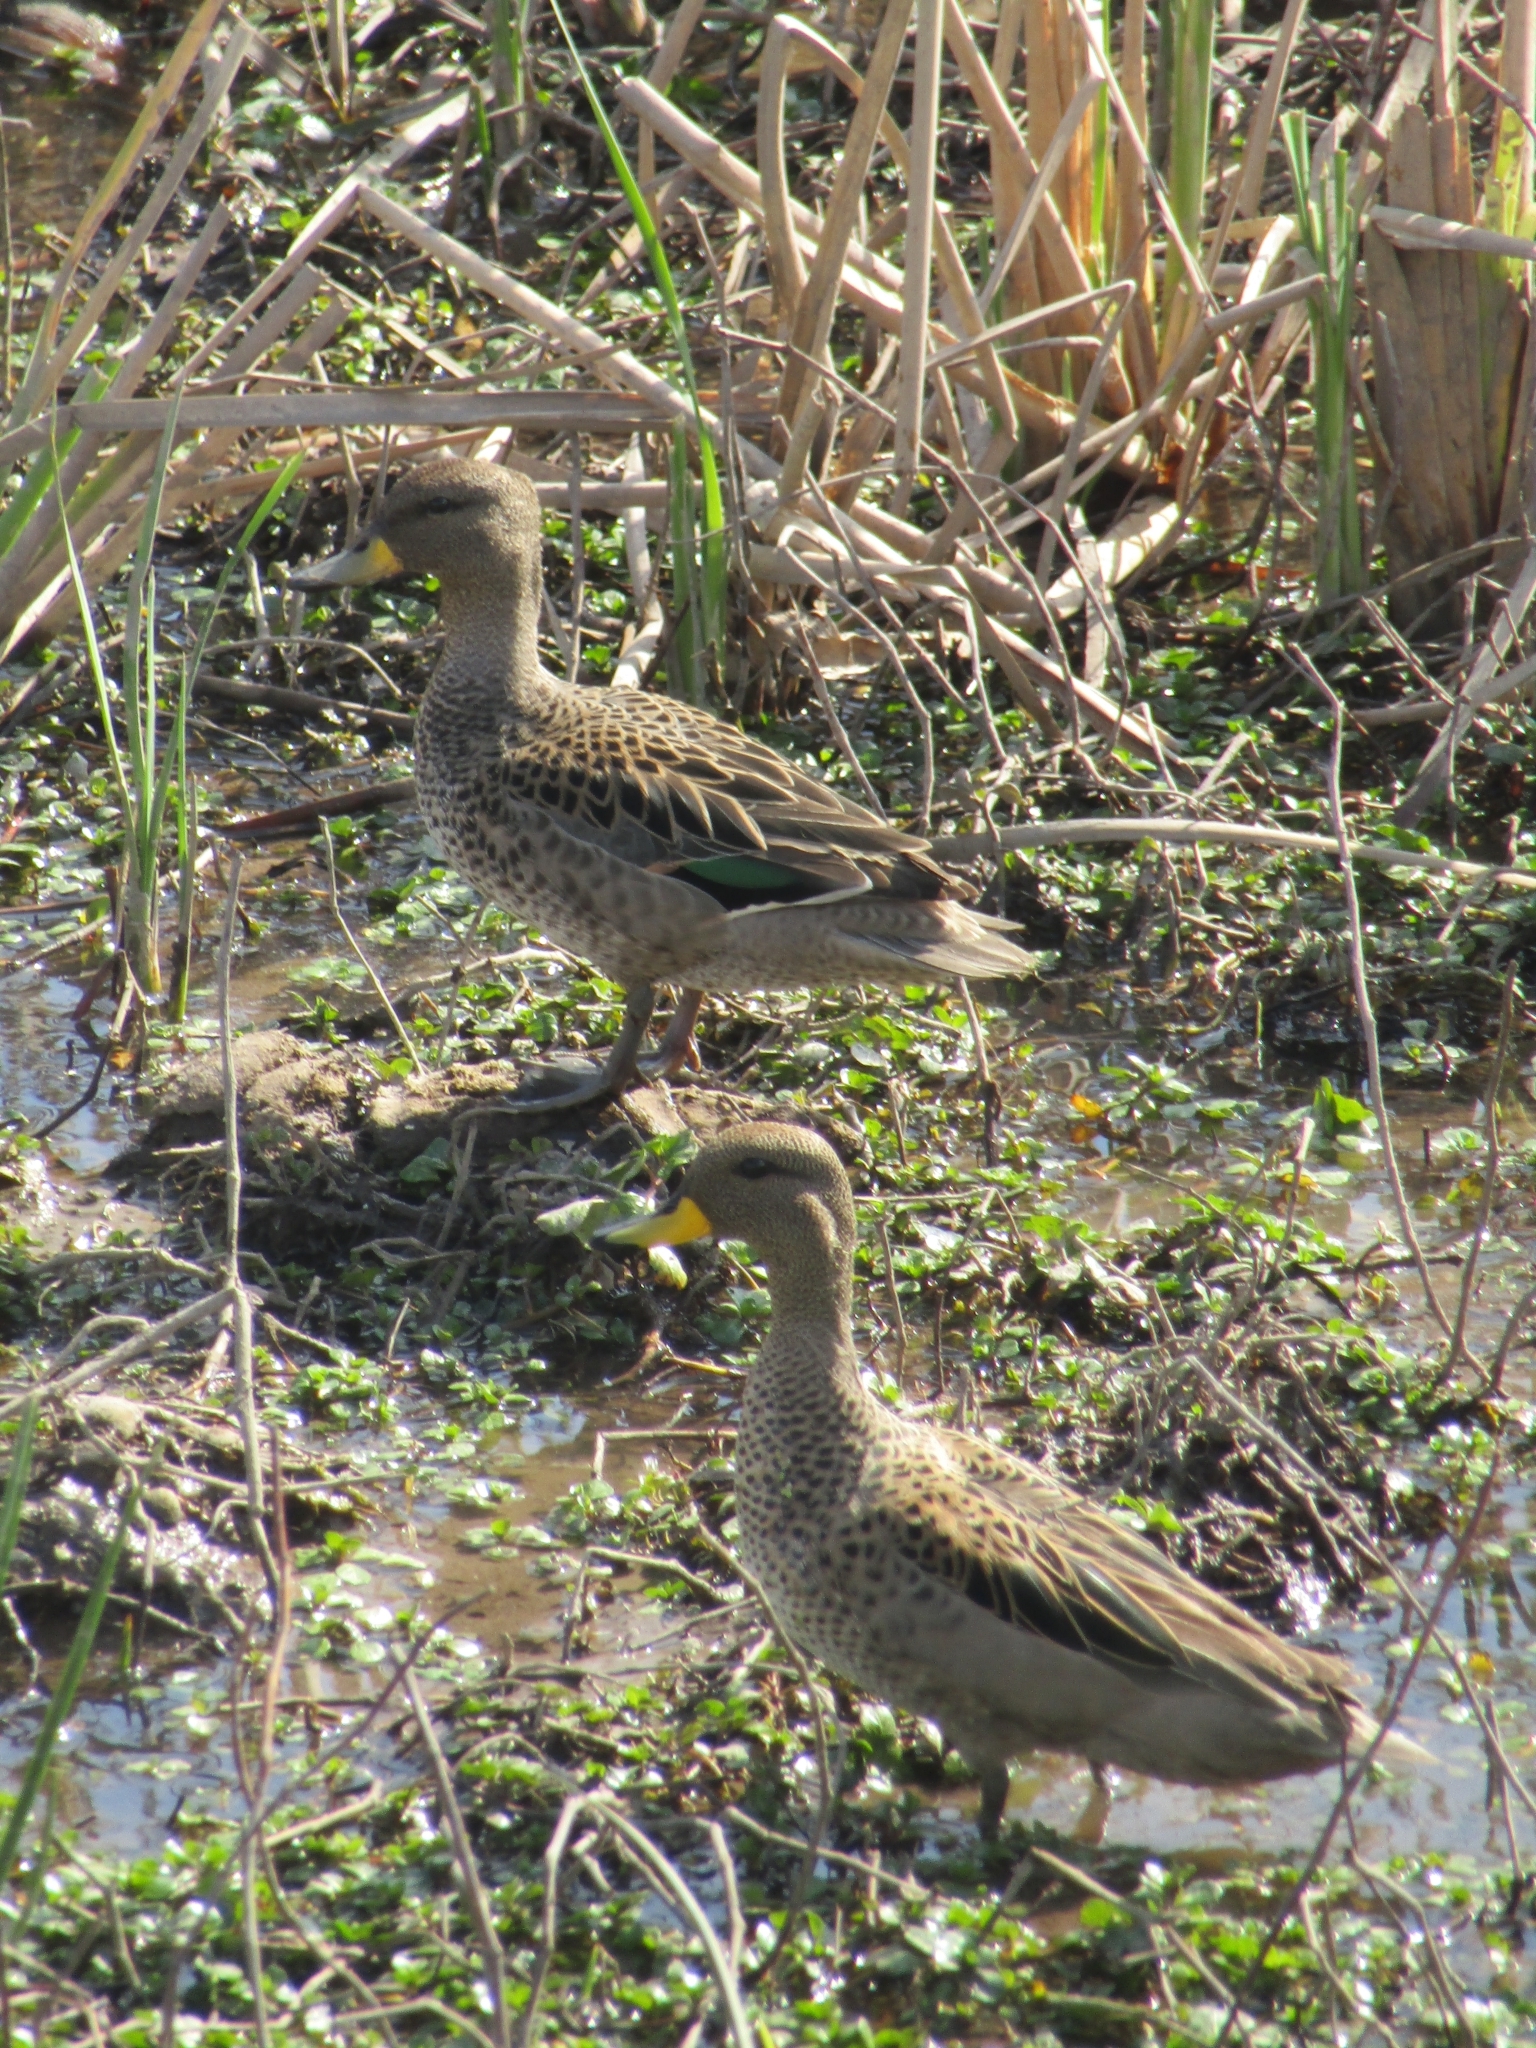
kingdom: Animalia
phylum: Chordata
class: Aves
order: Anseriformes
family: Anatidae
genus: Anas
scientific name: Anas flavirostris
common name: Yellow-billed teal
